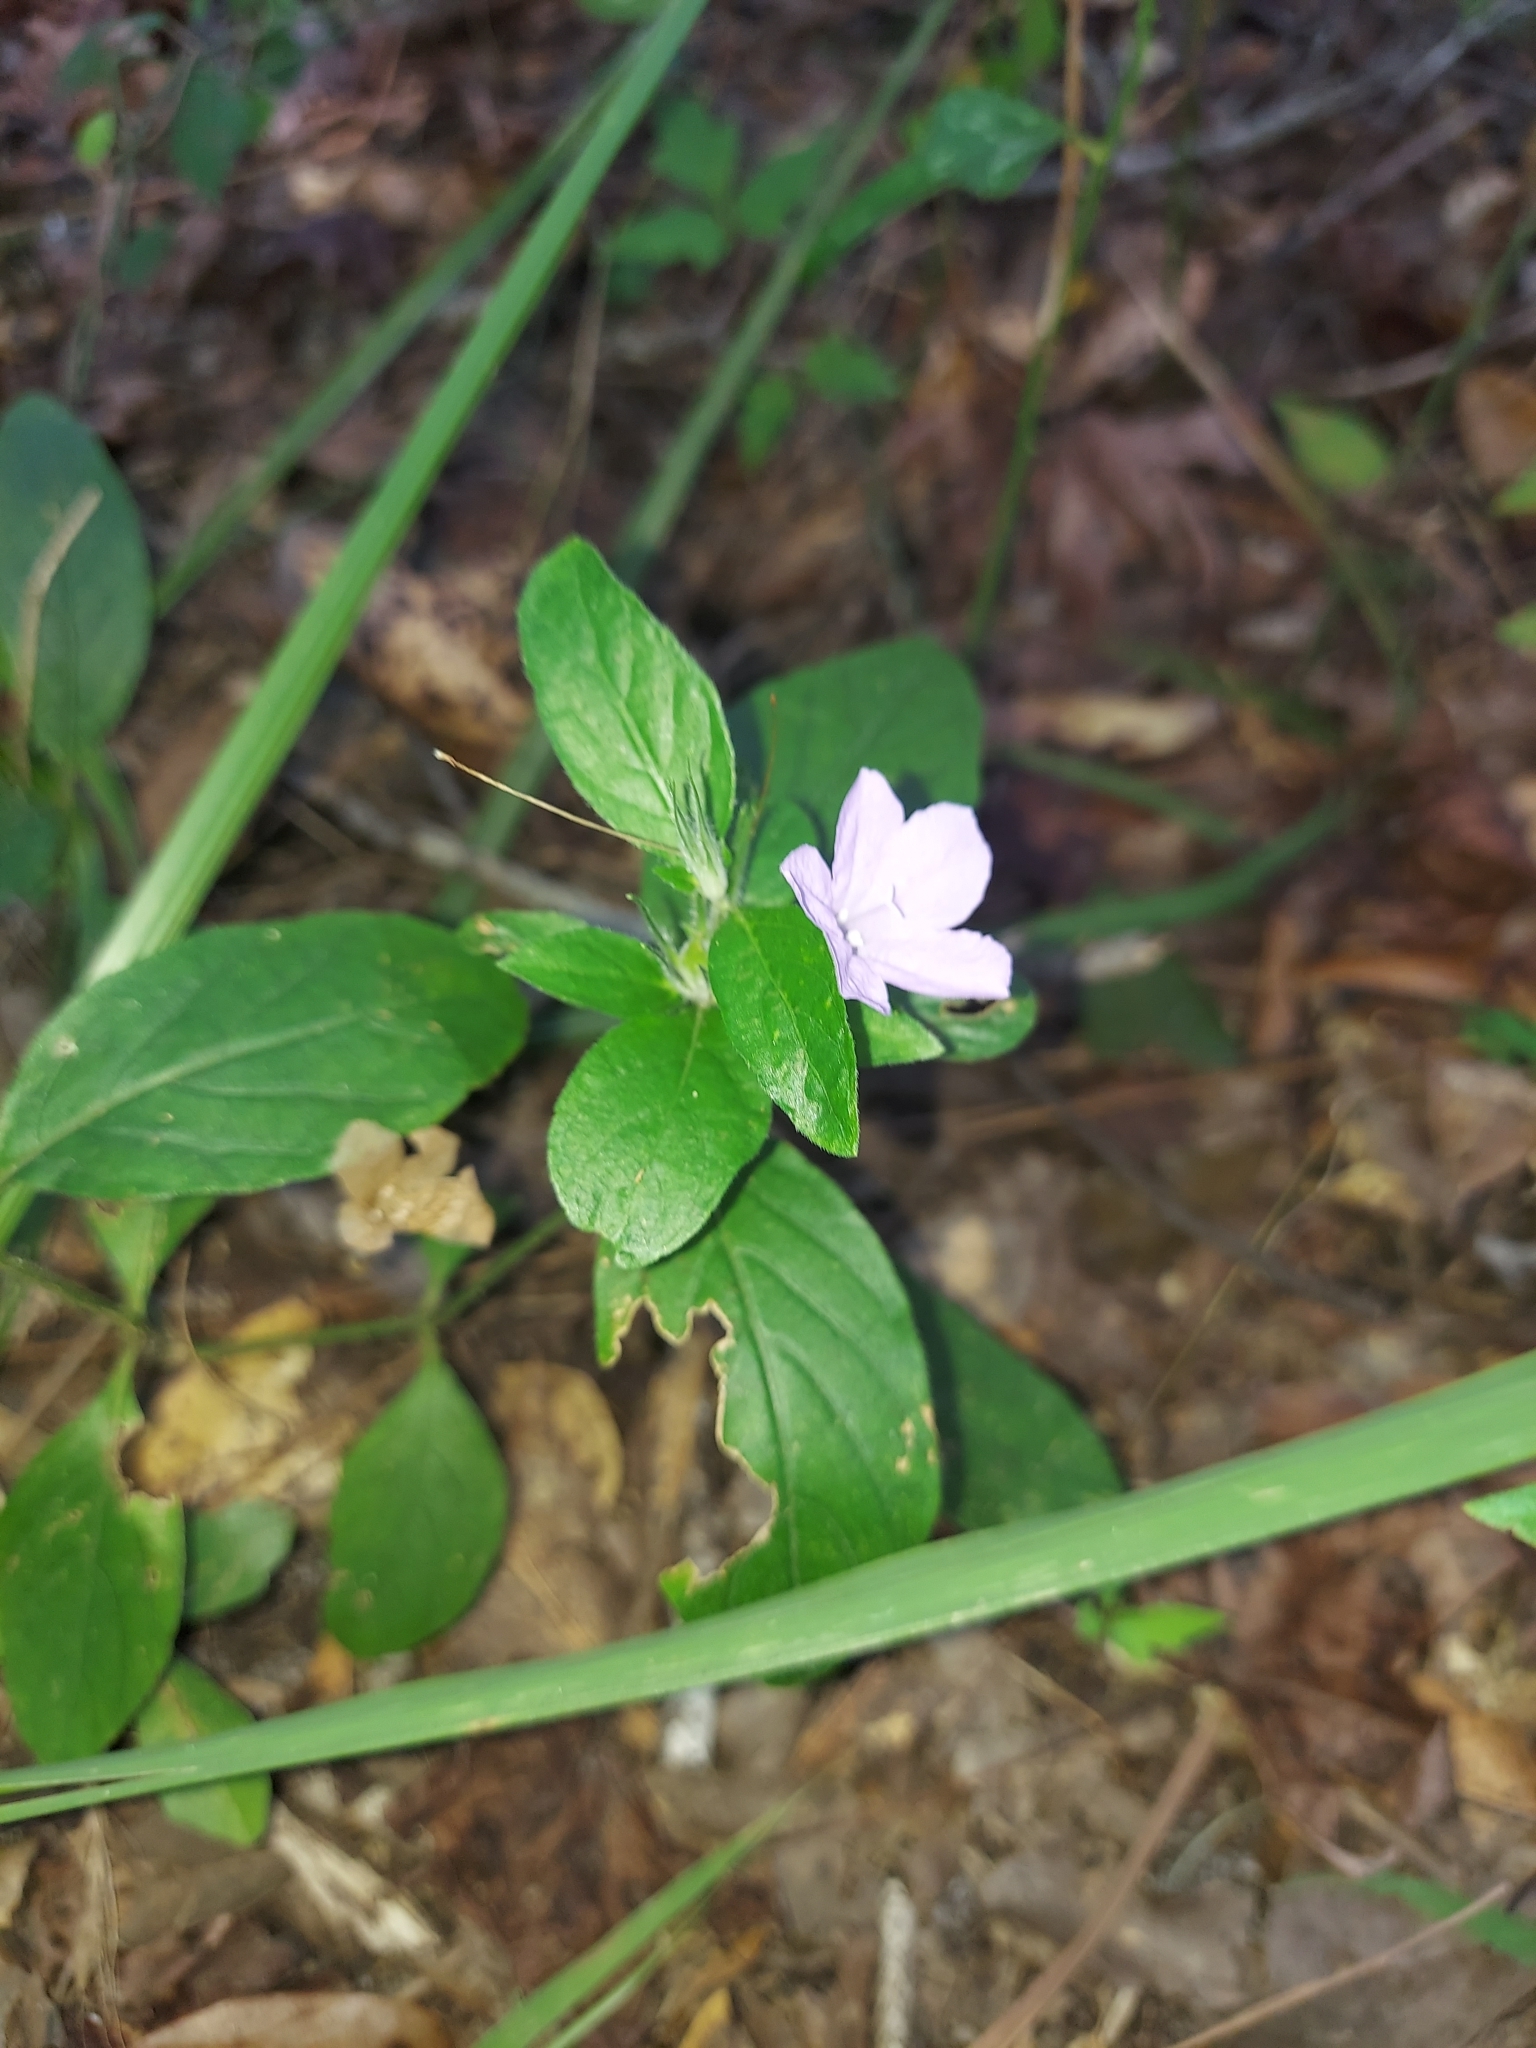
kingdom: Plantae
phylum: Tracheophyta
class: Magnoliopsida
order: Lamiales
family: Acanthaceae
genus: Ruellia
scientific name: Ruellia caroliniensis
